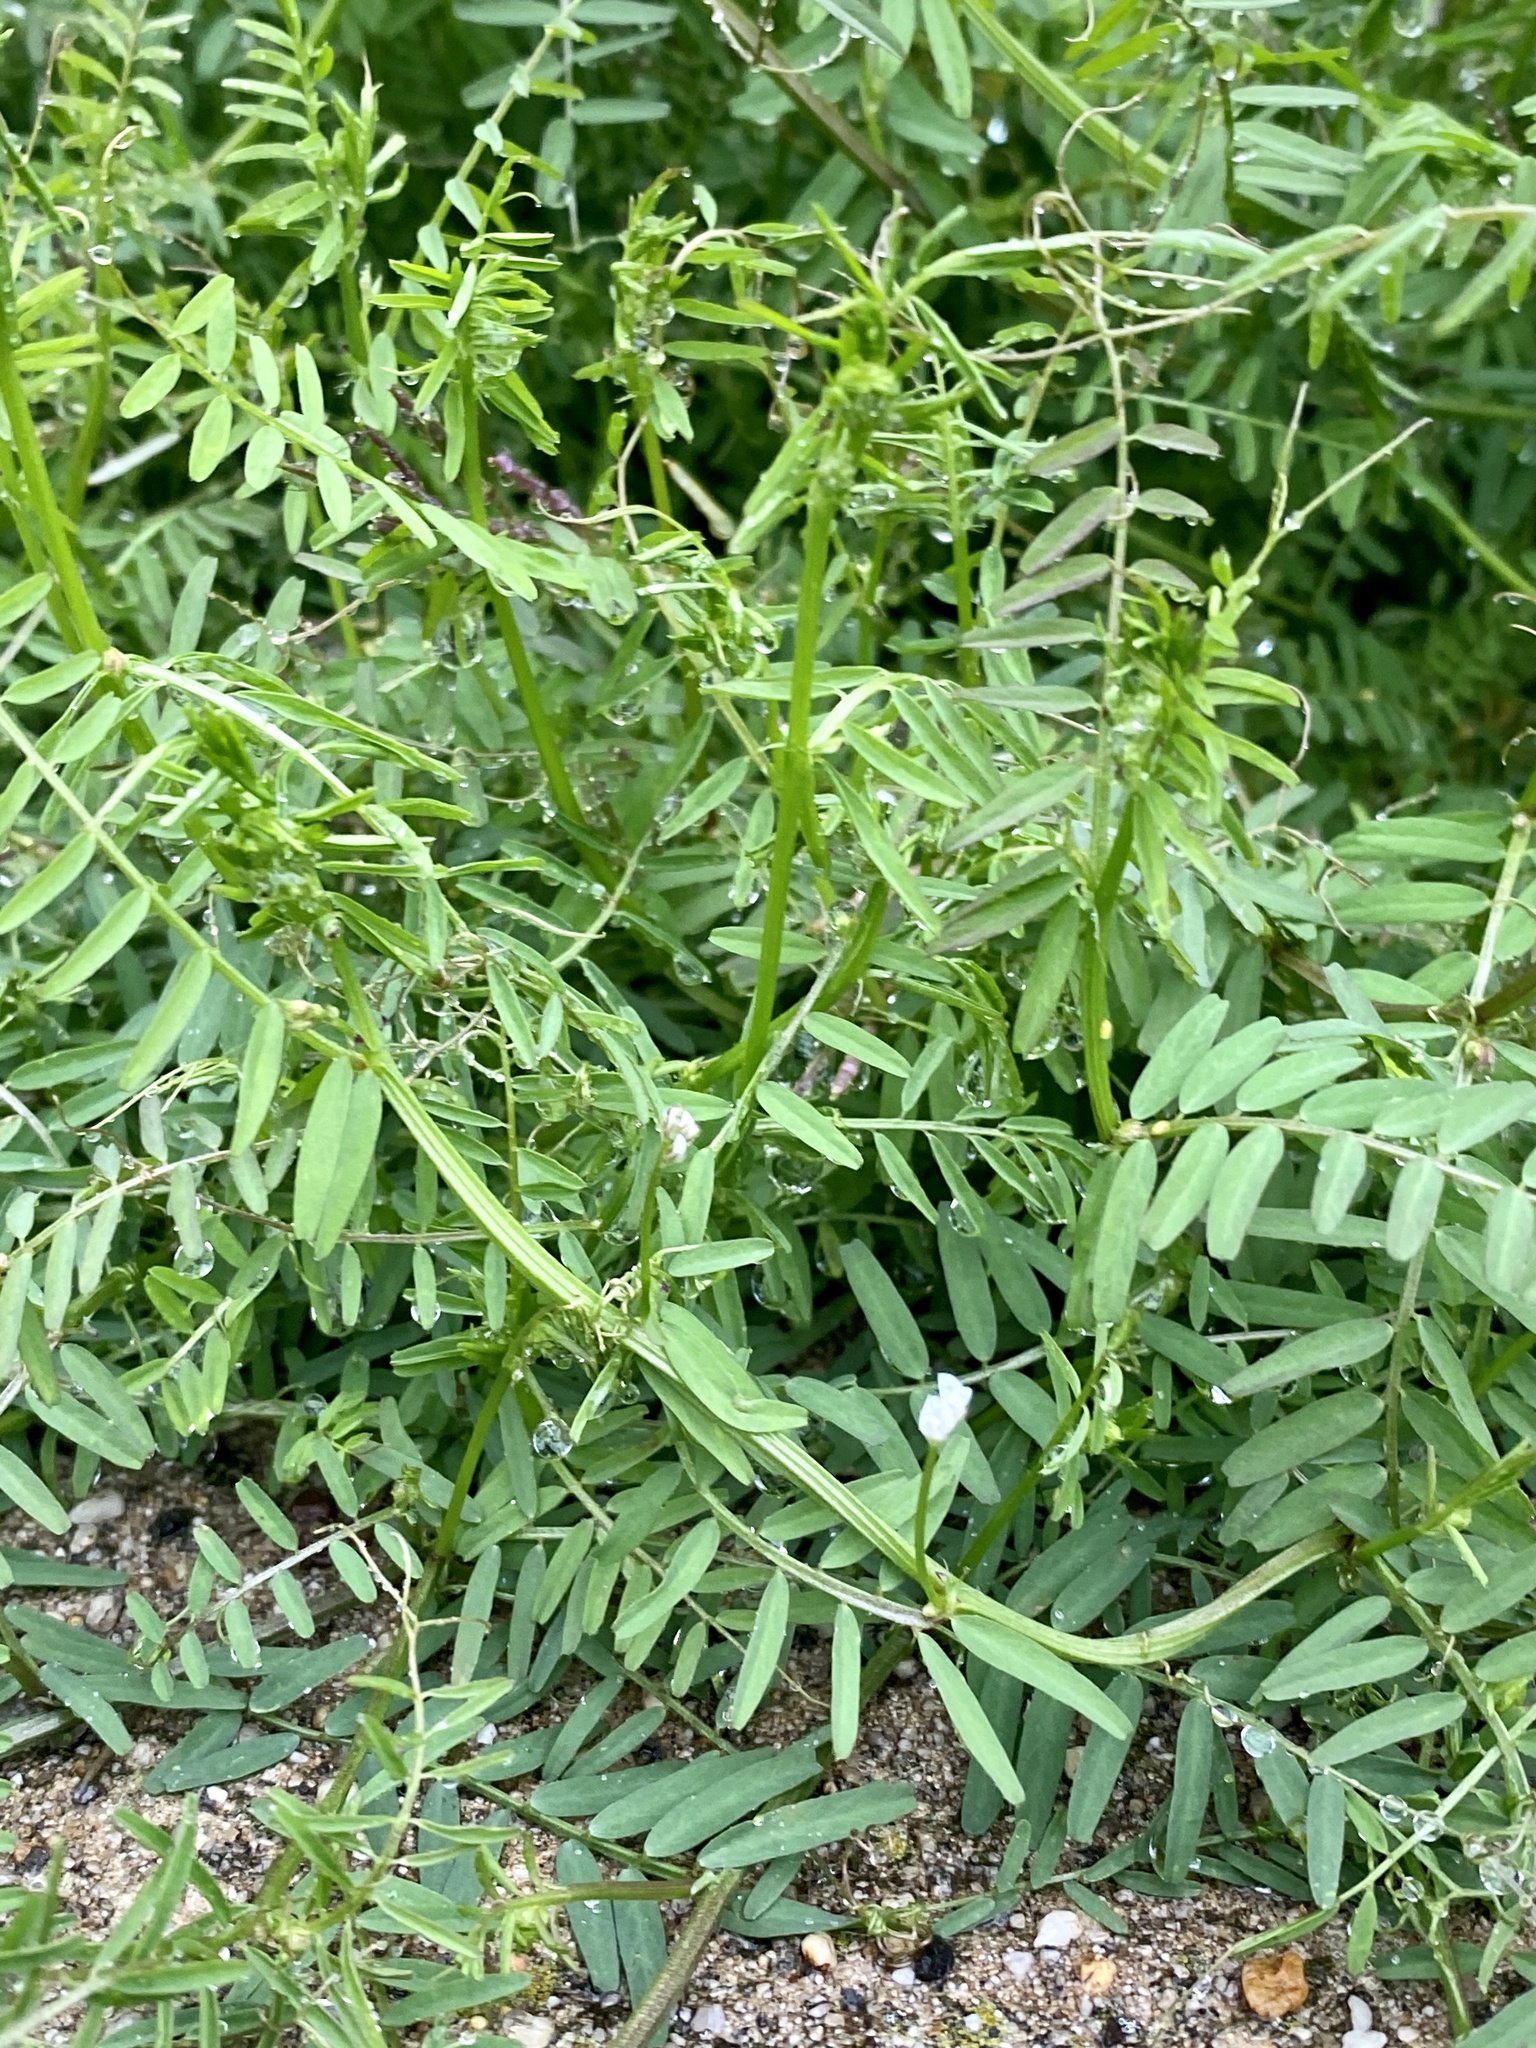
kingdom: Plantae
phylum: Tracheophyta
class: Magnoliopsida
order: Fabales
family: Fabaceae
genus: Vicia
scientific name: Vicia hirsuta
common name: Tiny vetch
